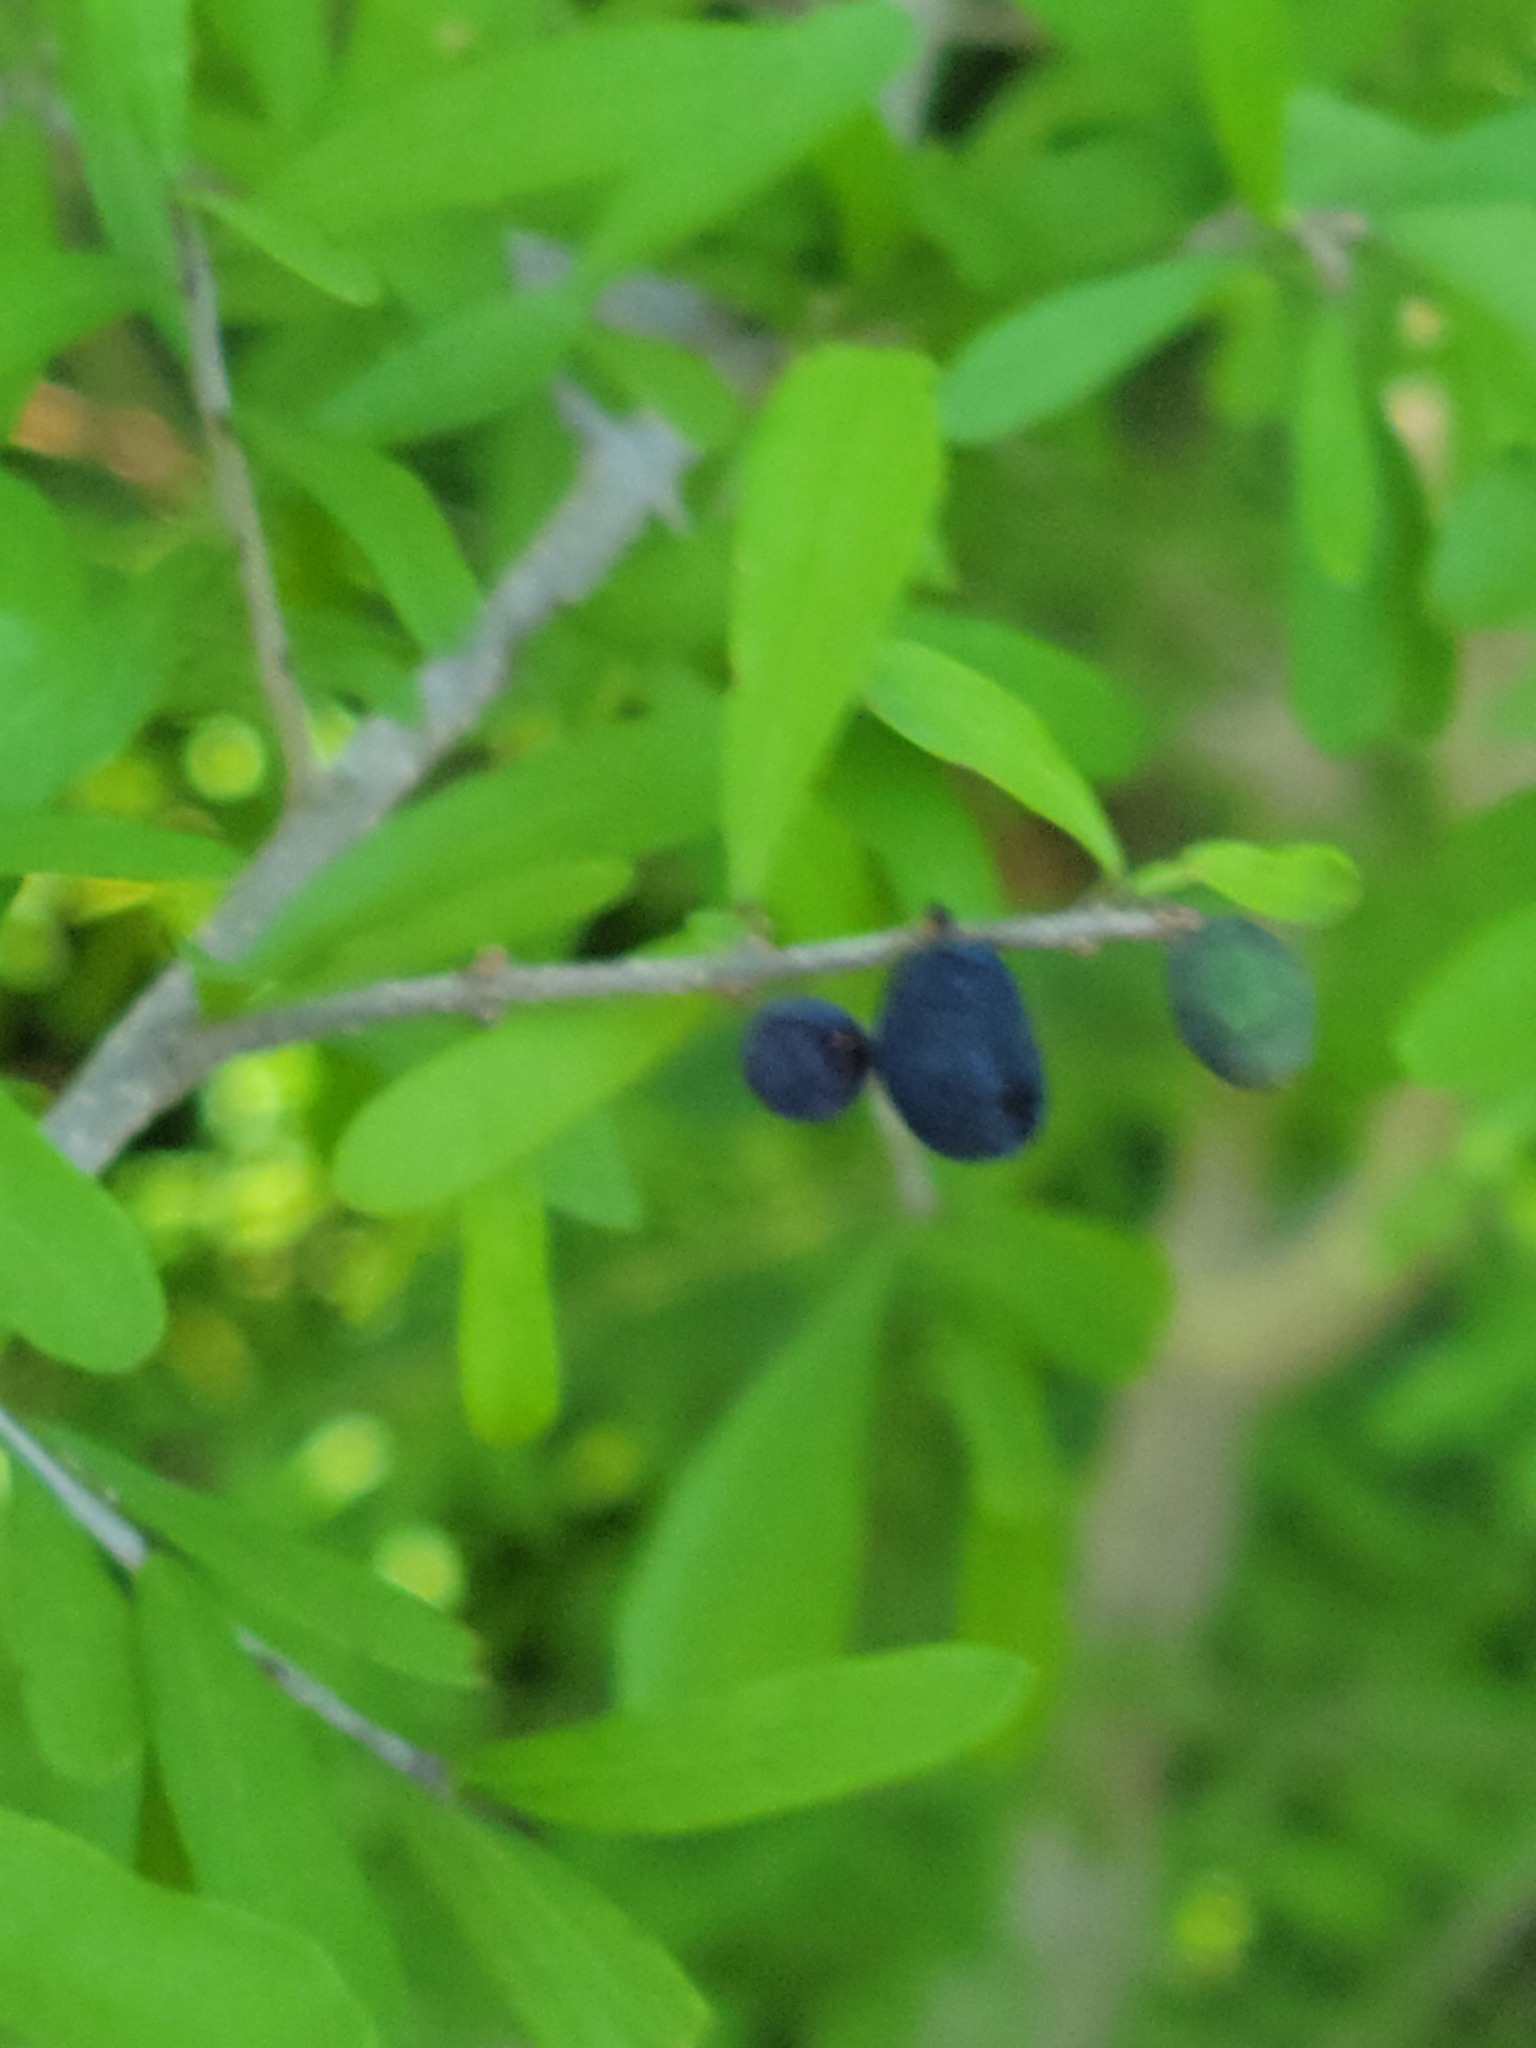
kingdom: Plantae
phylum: Tracheophyta
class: Magnoliopsida
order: Lamiales
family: Oleaceae
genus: Forestiera
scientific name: Forestiera angustifolia
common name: Elbowbush
